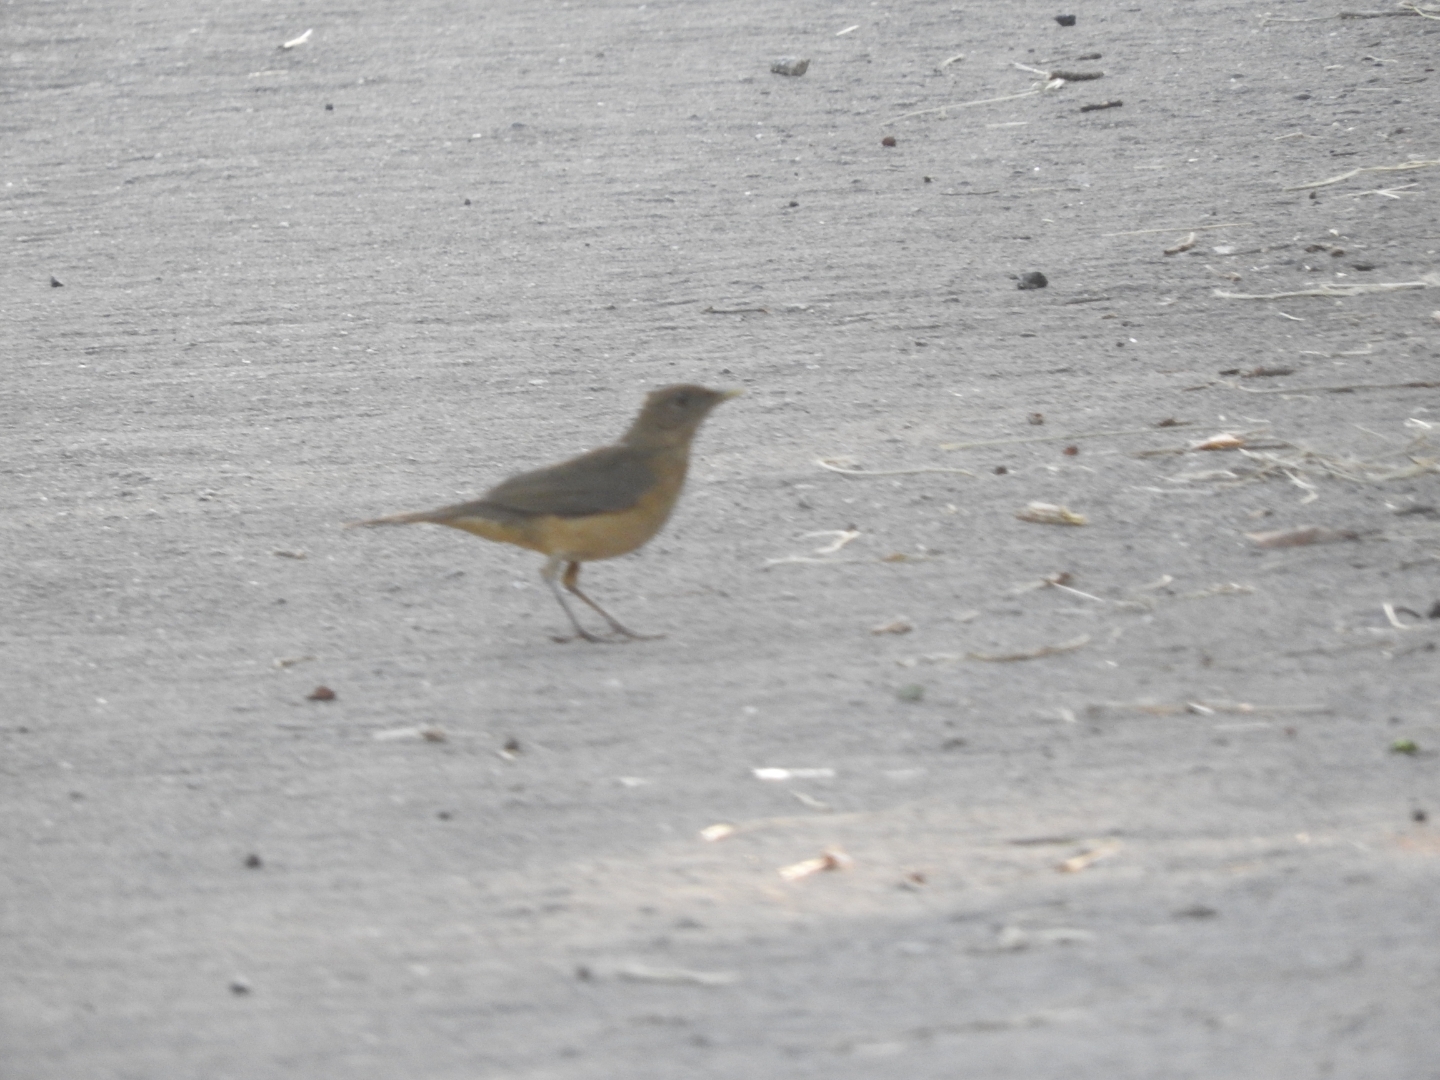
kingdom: Animalia
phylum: Chordata
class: Aves
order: Passeriformes
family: Turdidae
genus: Turdus
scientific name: Turdus grayi
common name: Clay-colored thrush
